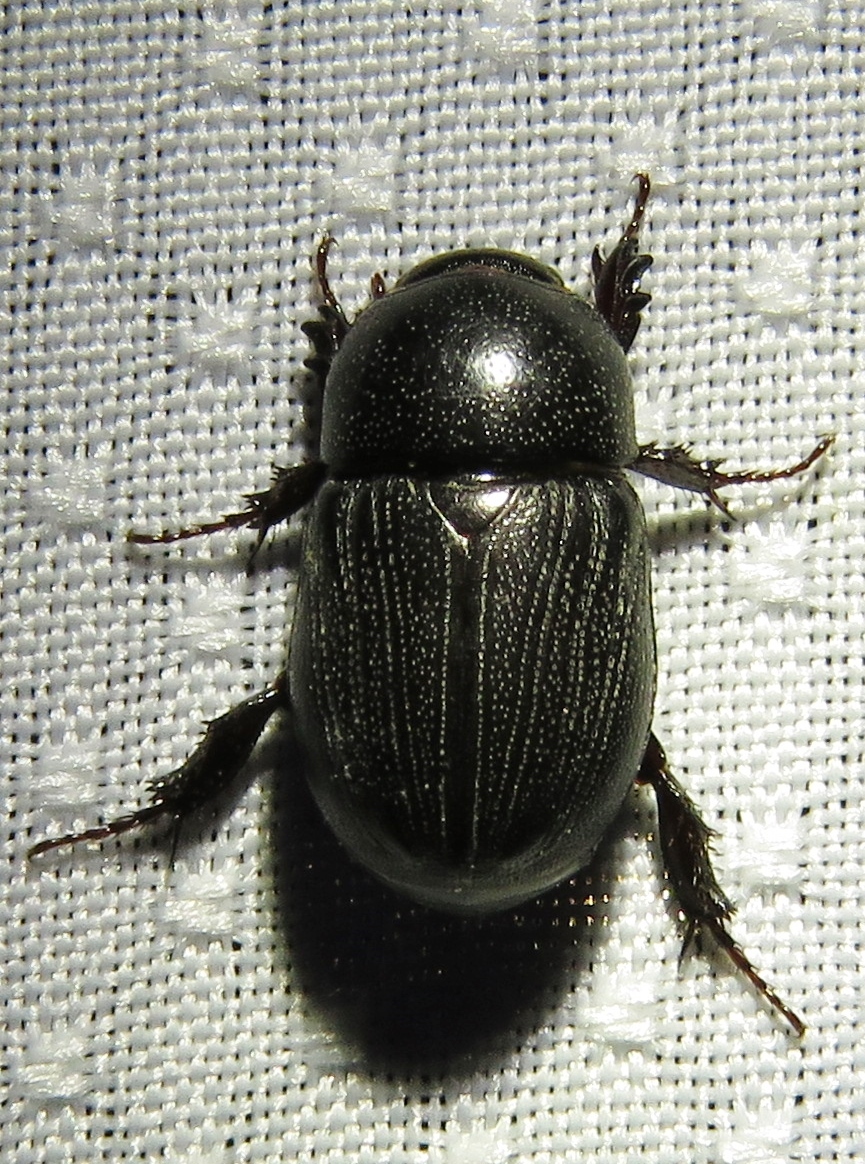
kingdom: Animalia
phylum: Arthropoda
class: Insecta
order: Coleoptera
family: Scarabaeidae
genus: Euetheola
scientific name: Euetheola humilis
